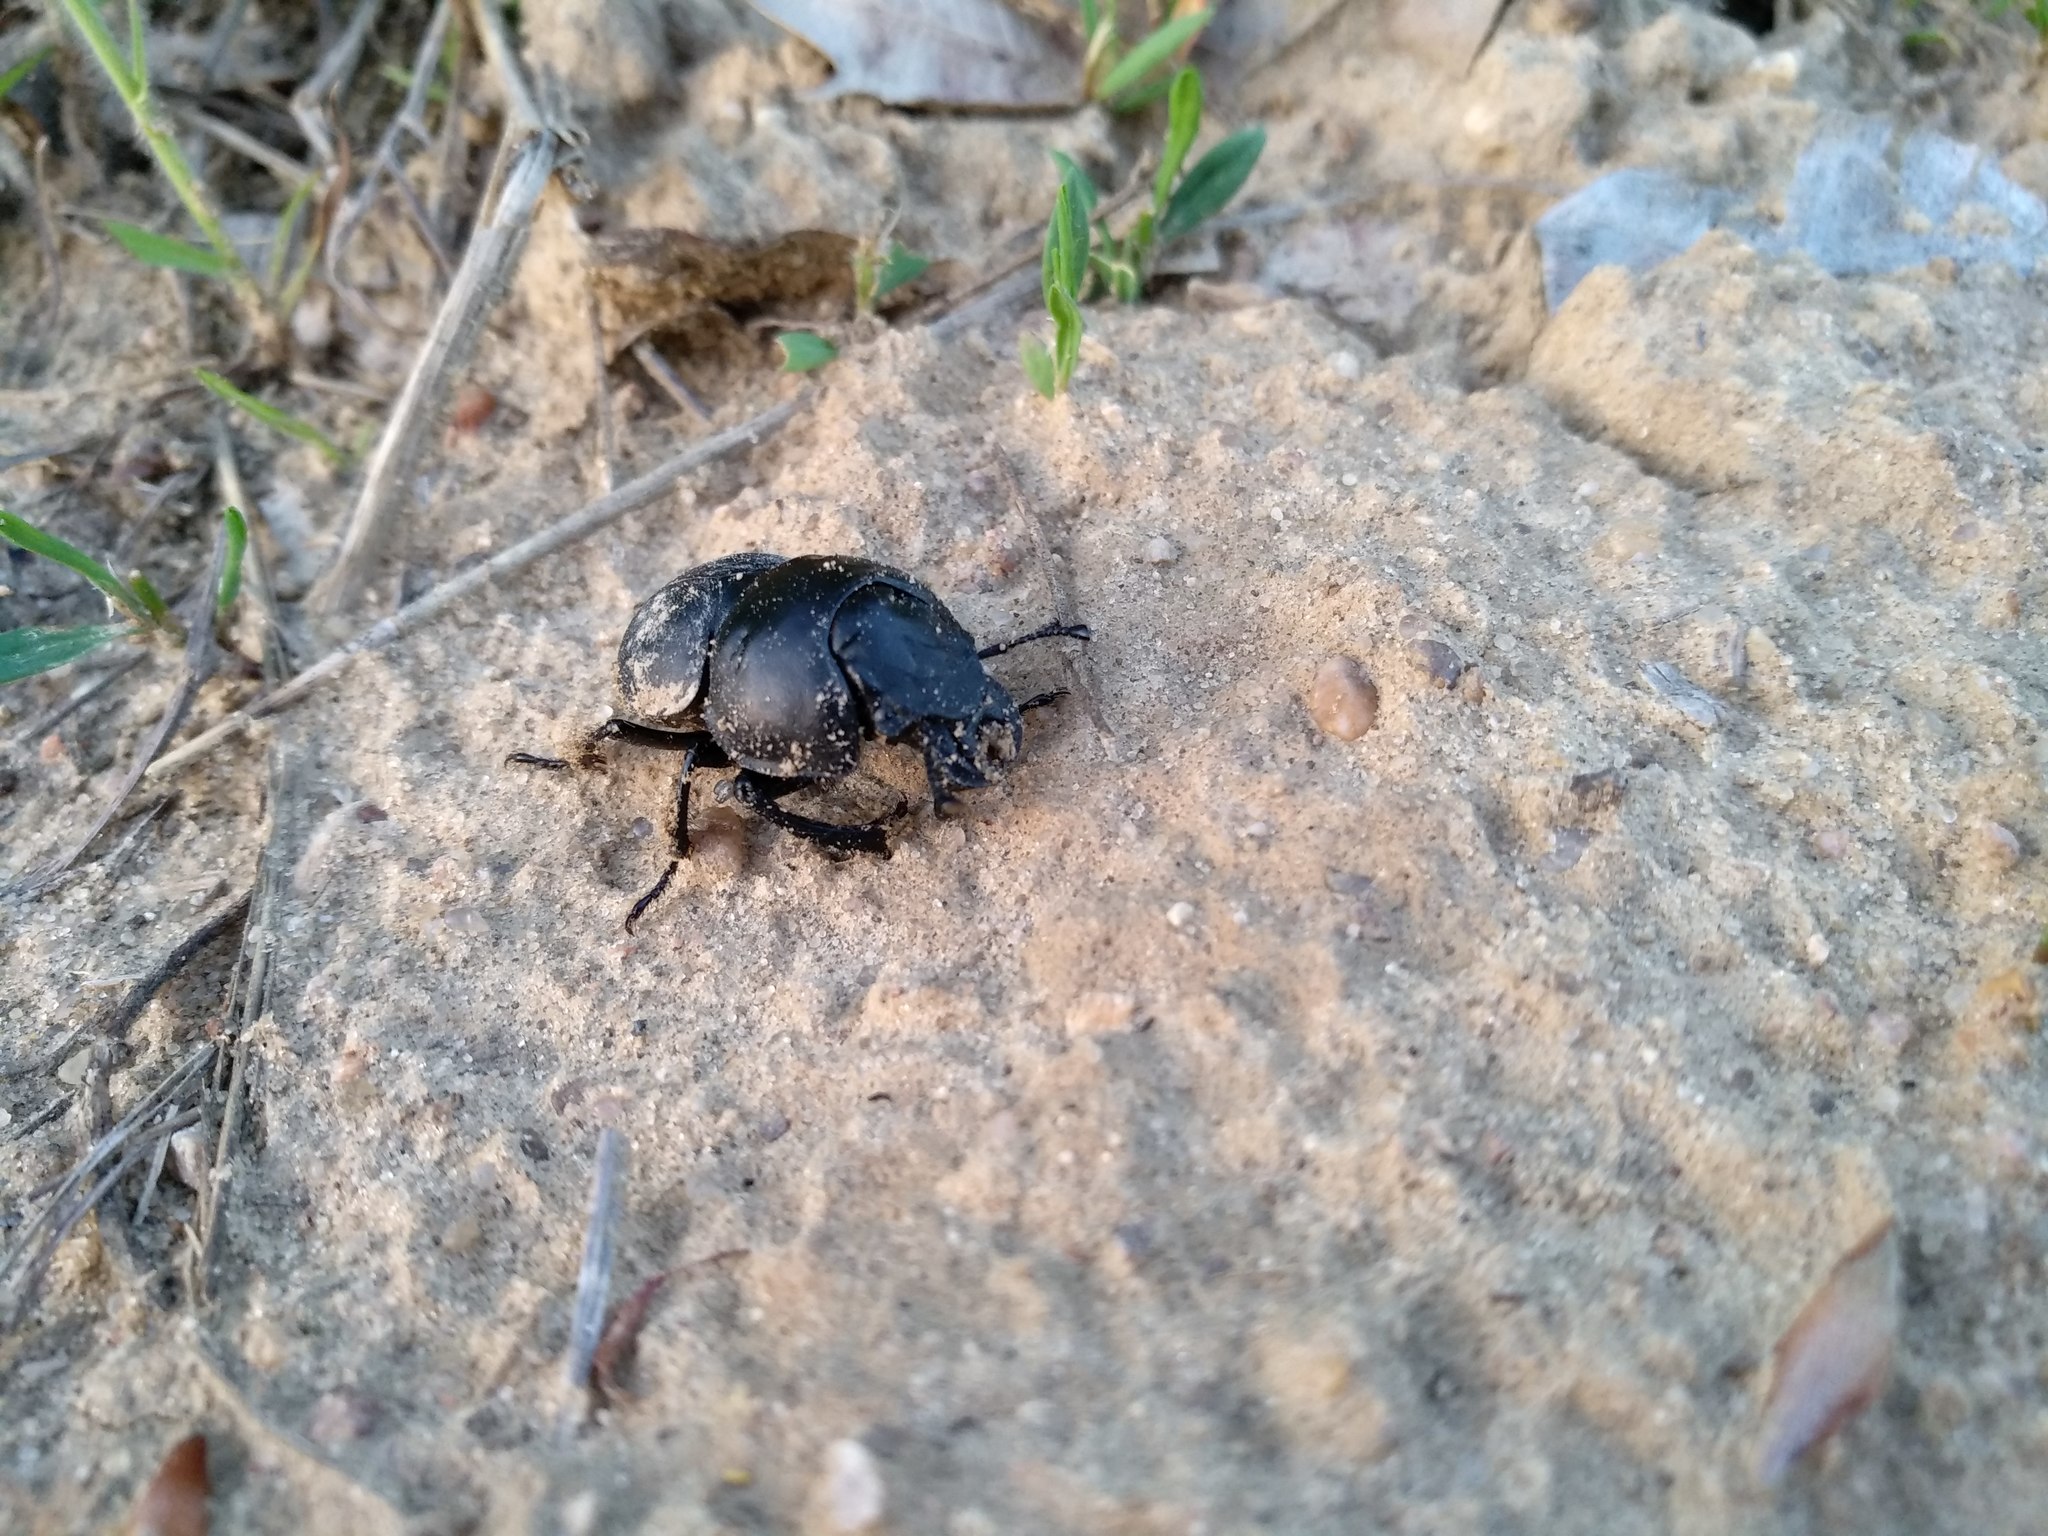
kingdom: Animalia
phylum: Arthropoda
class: Insecta
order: Coleoptera
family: Geotrupidae
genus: Lethrus
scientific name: Lethrus apterus
